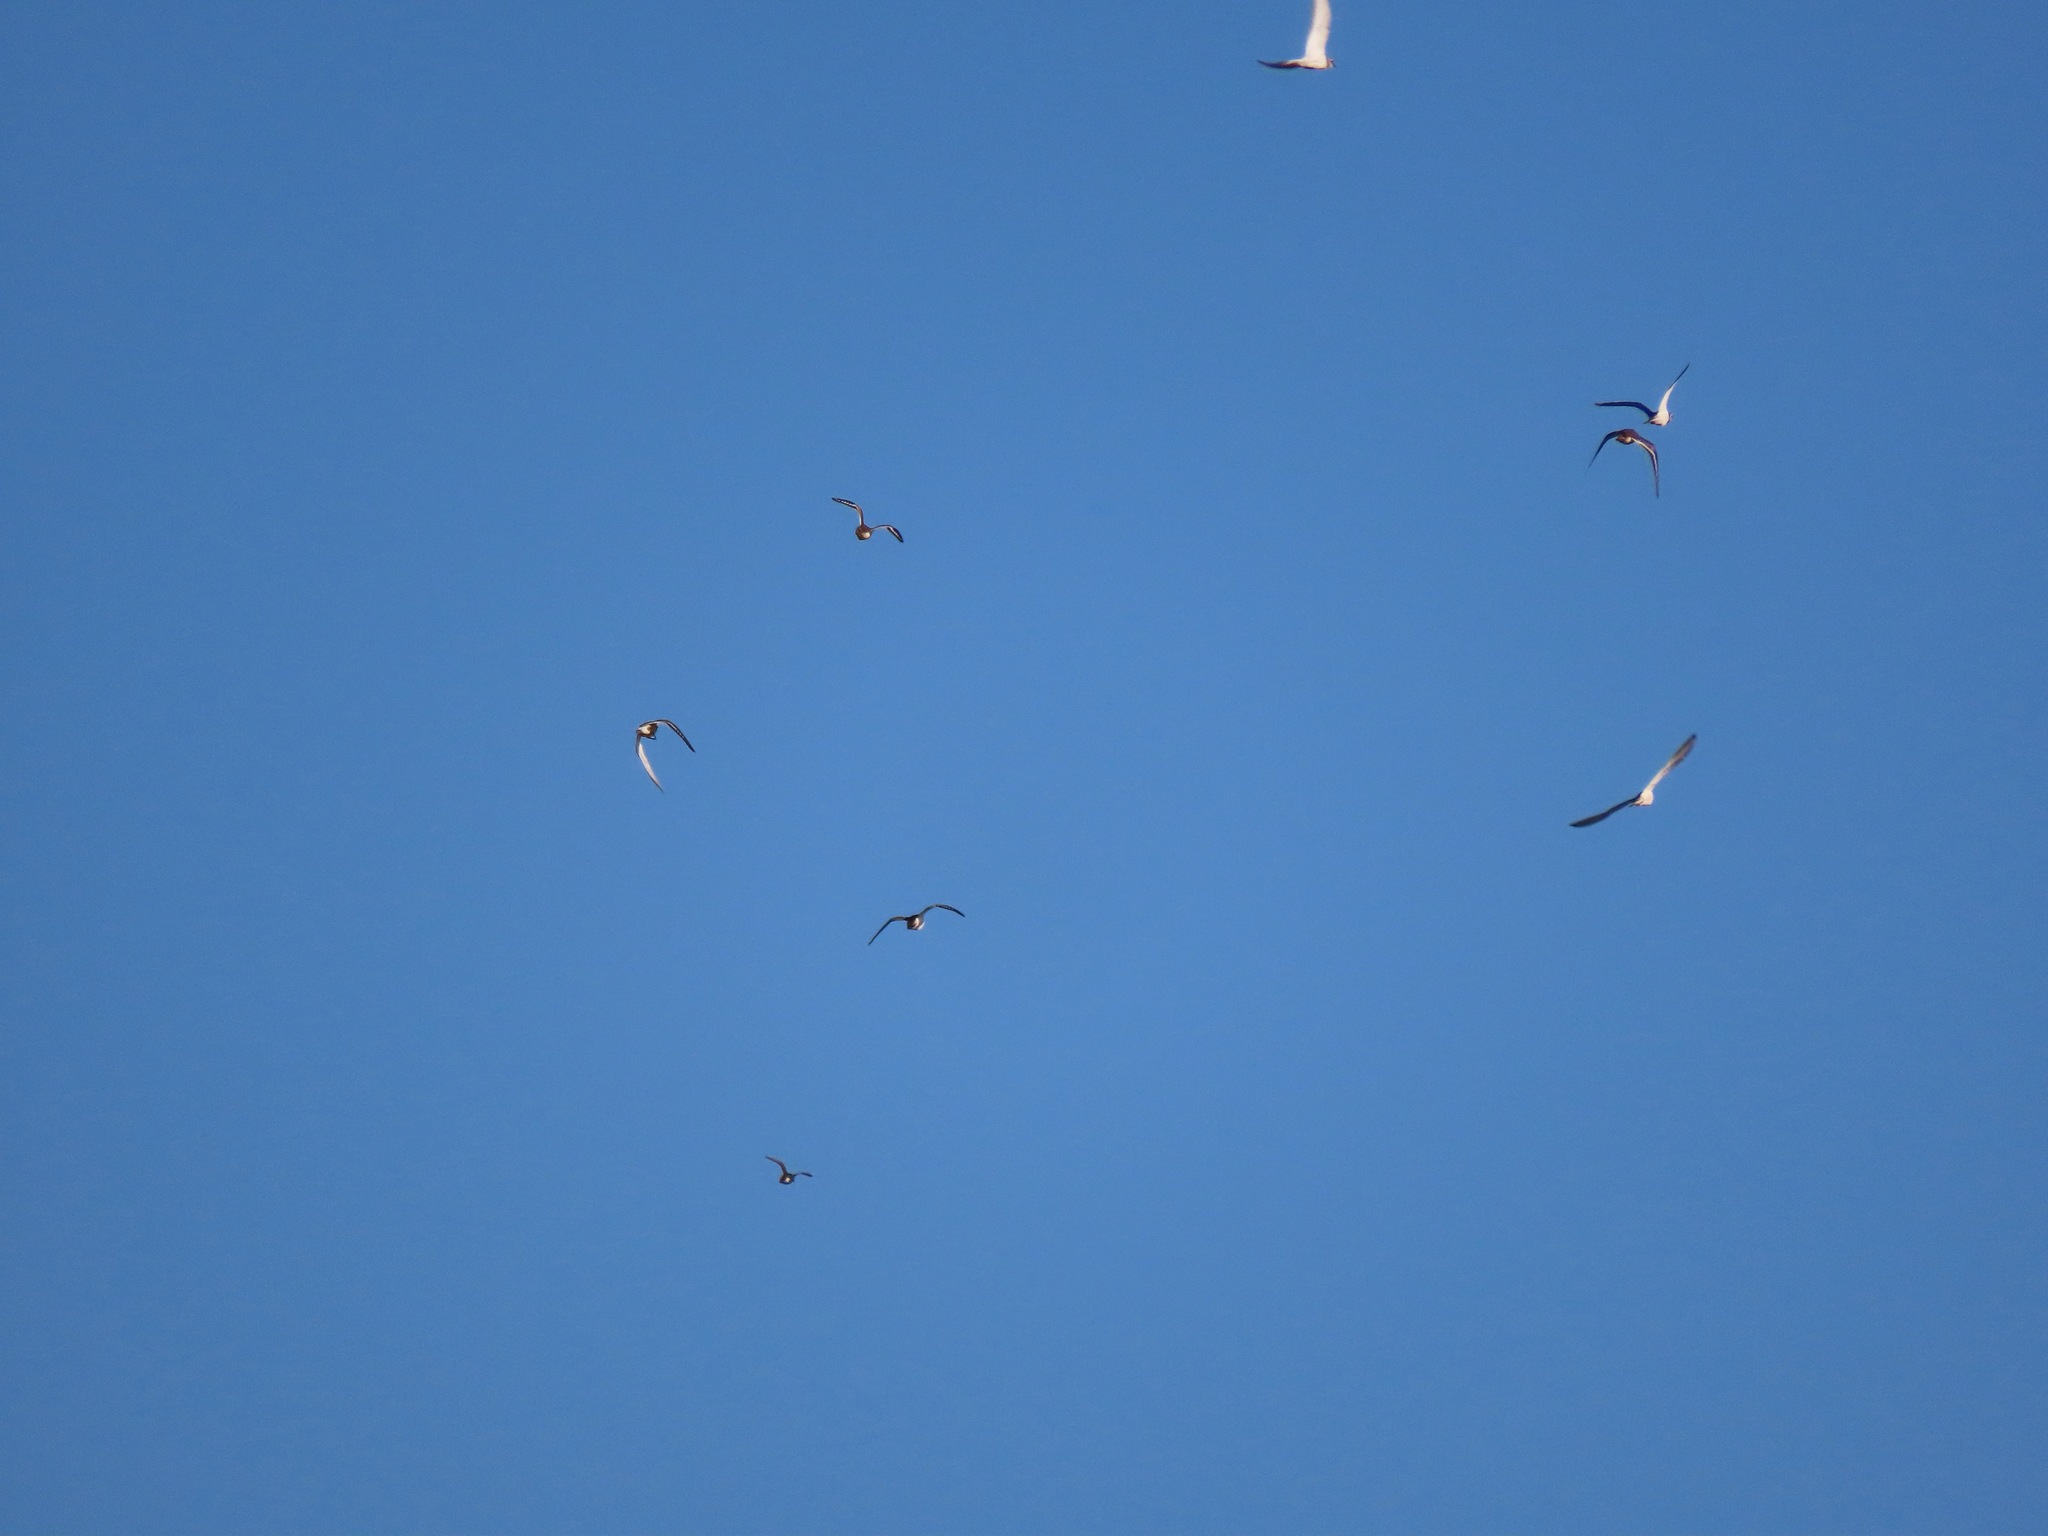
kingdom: Animalia
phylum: Chordata
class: Aves
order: Charadriiformes
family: Charadriidae
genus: Charadrius
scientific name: Charadrius vociferus
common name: Killdeer
